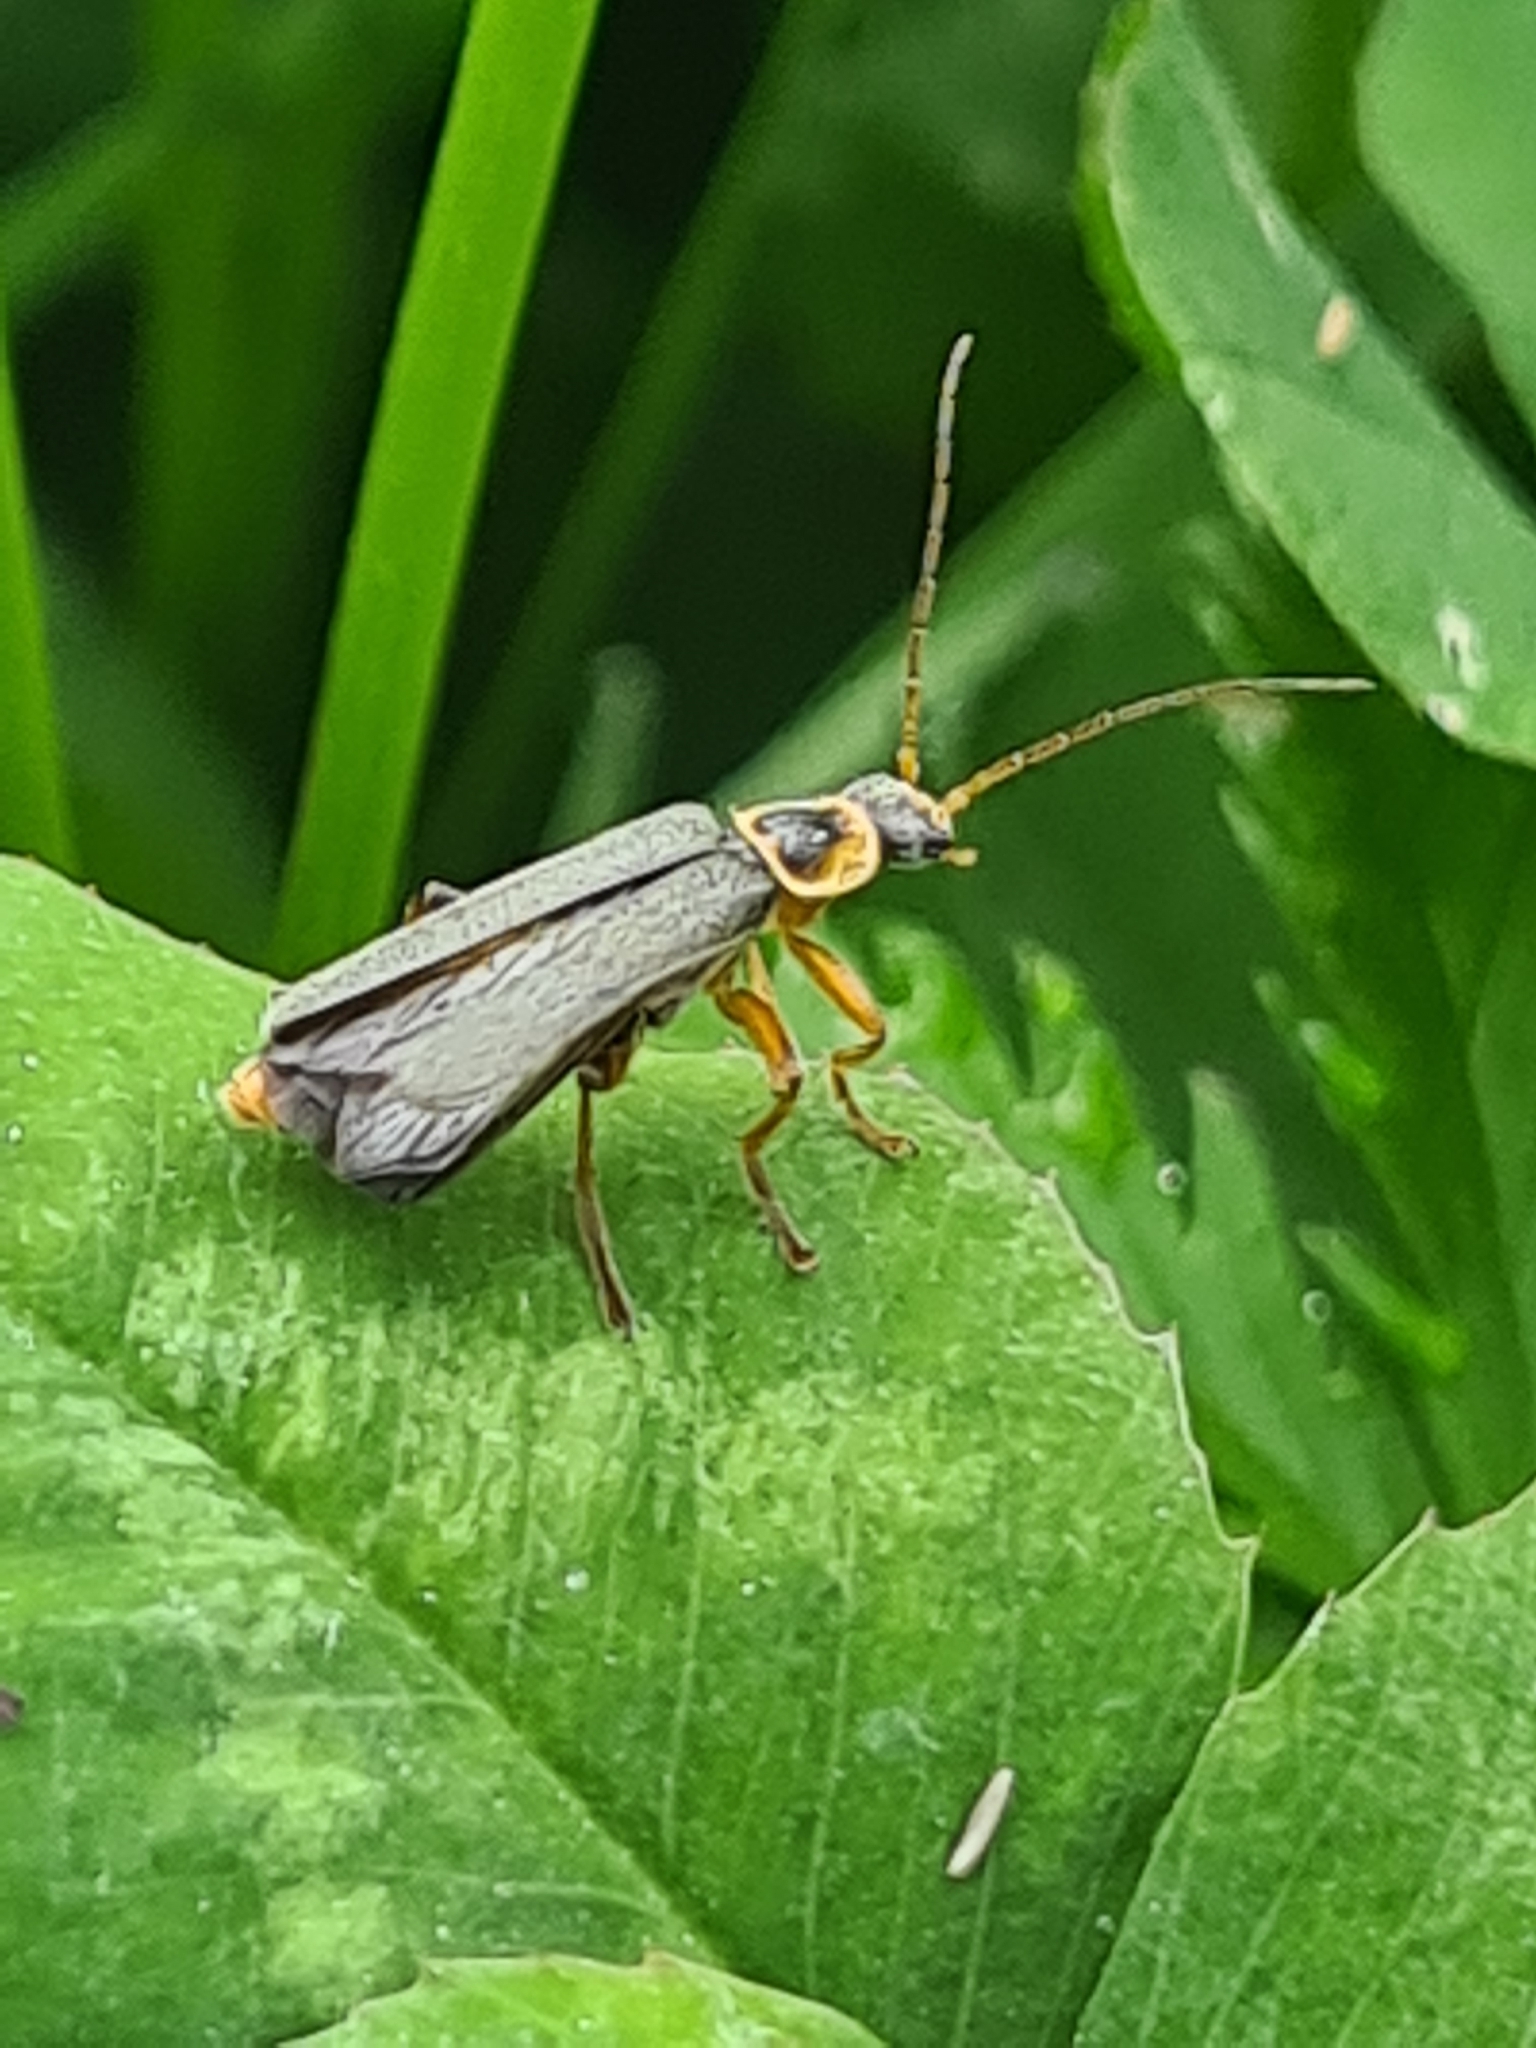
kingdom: Animalia
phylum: Arthropoda
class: Insecta
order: Coleoptera
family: Cantharidae
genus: Cantharis
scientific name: Cantharis nigricans
